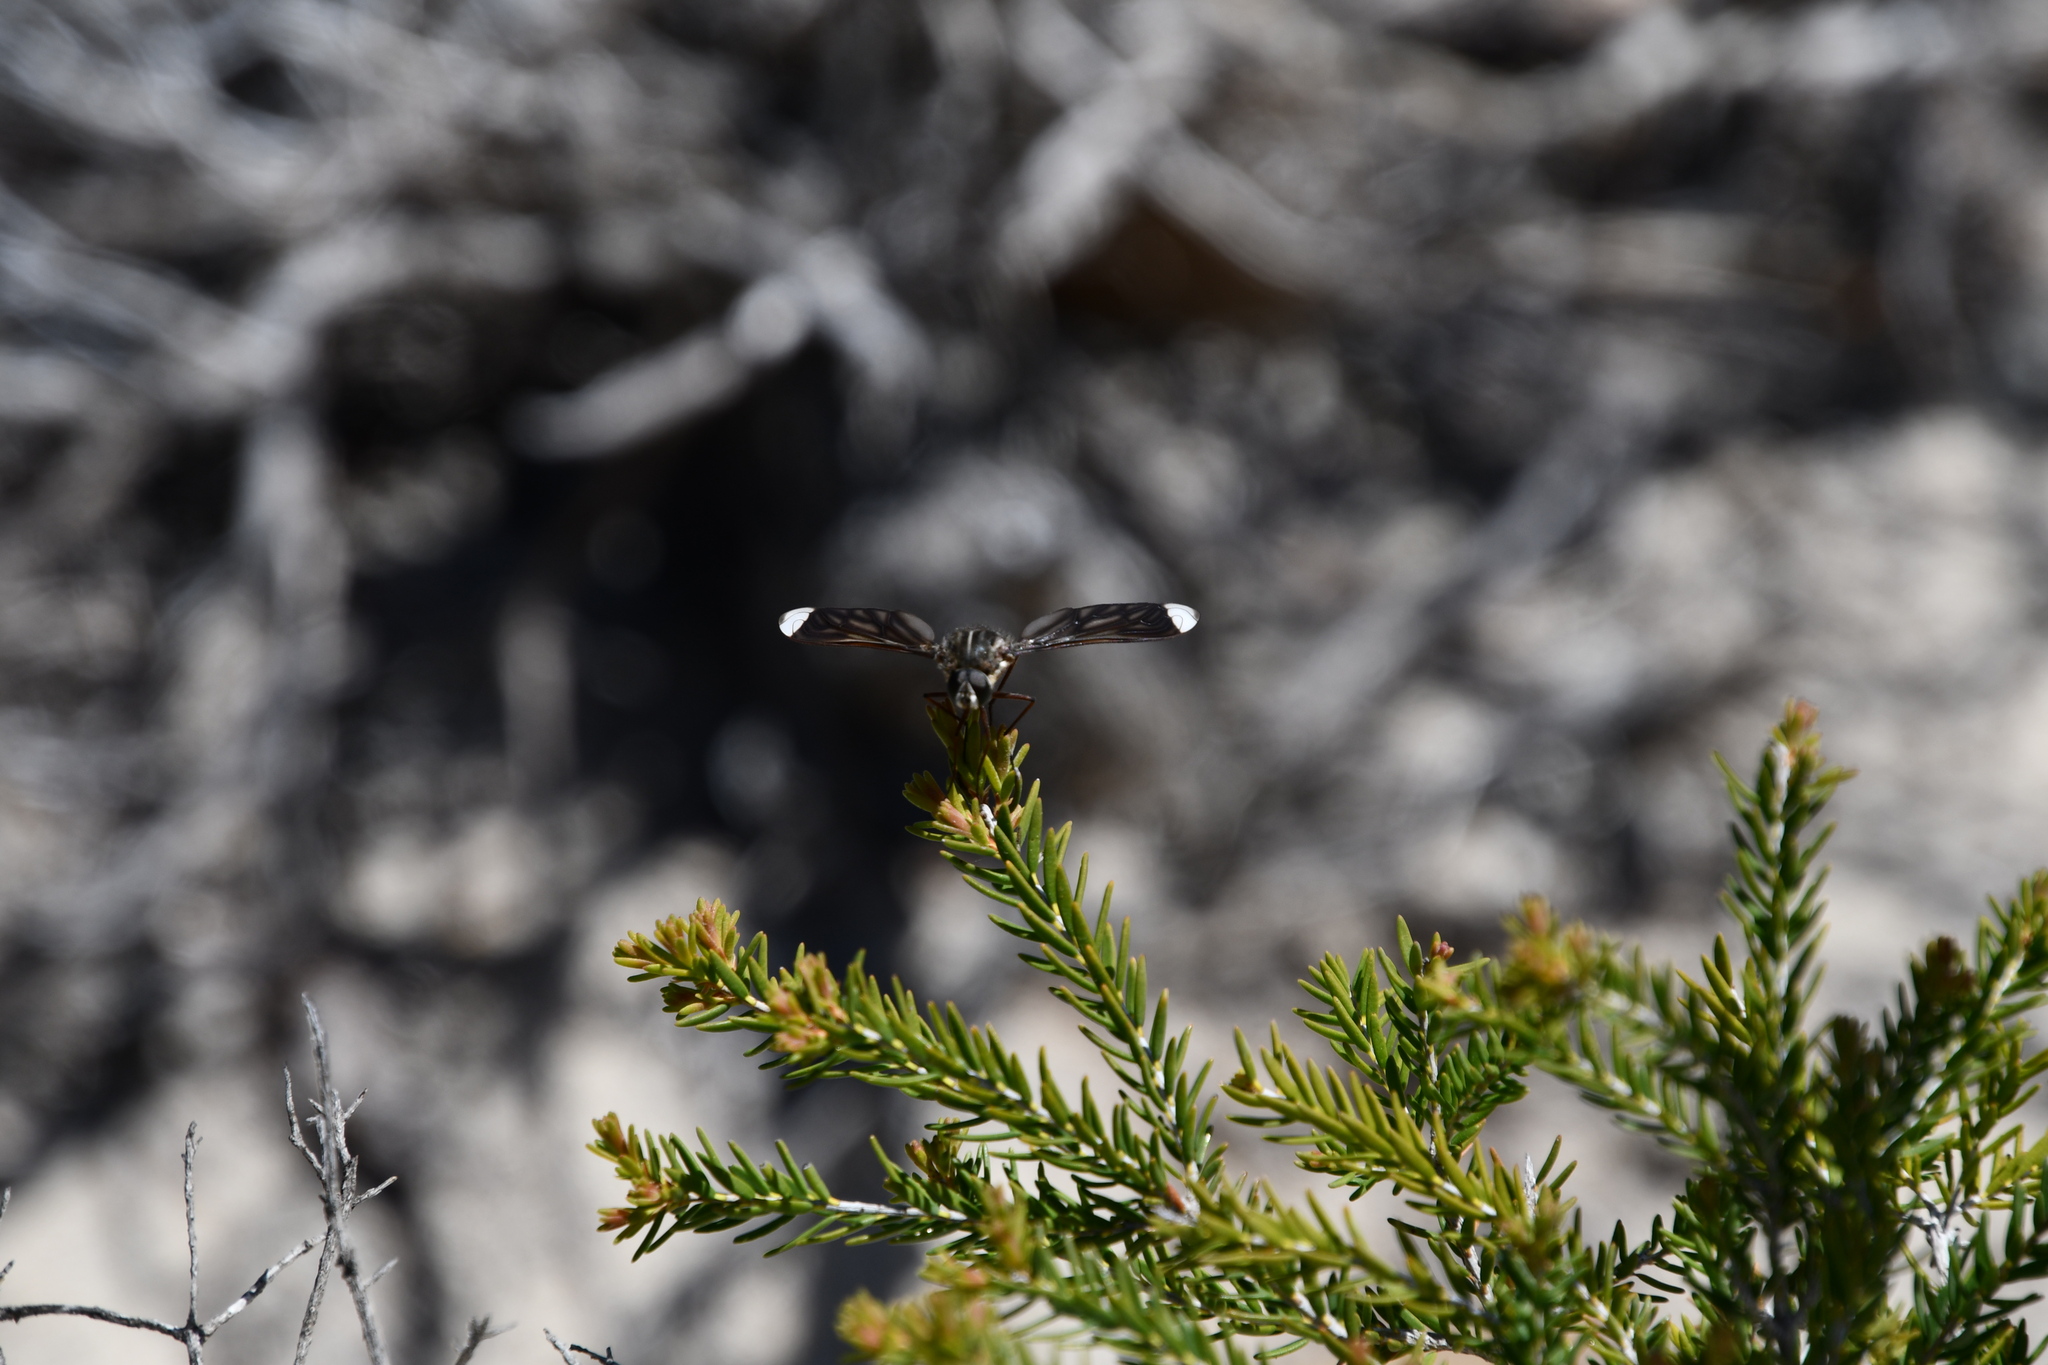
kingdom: Animalia
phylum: Arthropoda
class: Insecta
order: Diptera
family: Bombyliidae
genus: Comptosia
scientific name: Comptosia vittata
